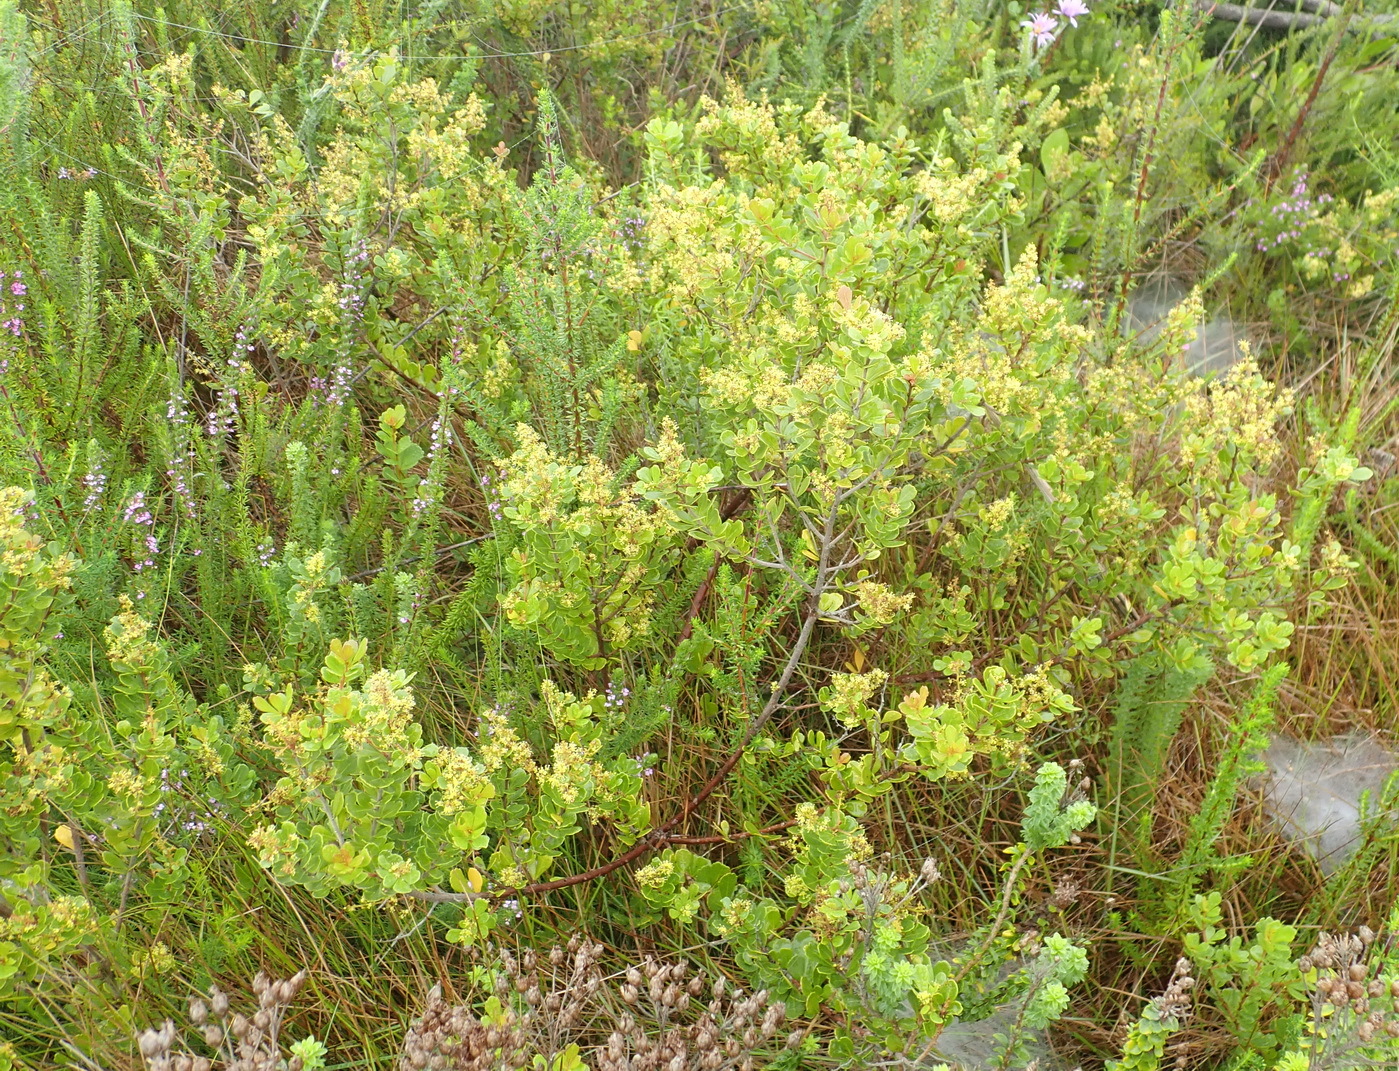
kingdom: Plantae
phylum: Tracheophyta
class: Magnoliopsida
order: Sapindales
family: Anacardiaceae
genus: Searsia
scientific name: Searsia crenata
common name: Crowberry
